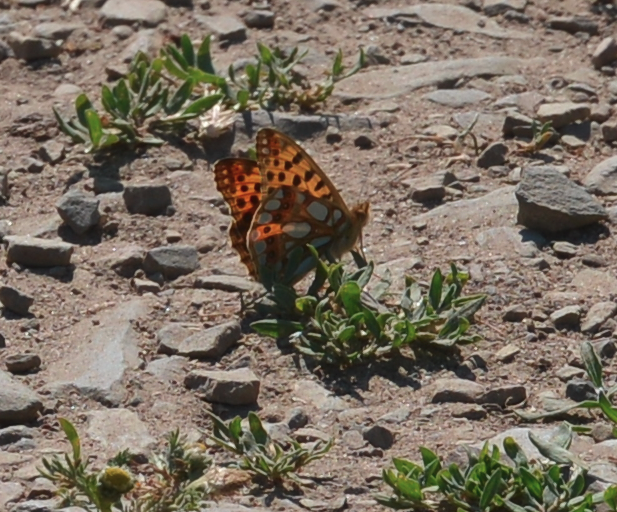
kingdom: Animalia
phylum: Arthropoda
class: Insecta
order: Lepidoptera
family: Nymphalidae
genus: Issoria
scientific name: Issoria lathonia
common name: Queen of spain fritillary
